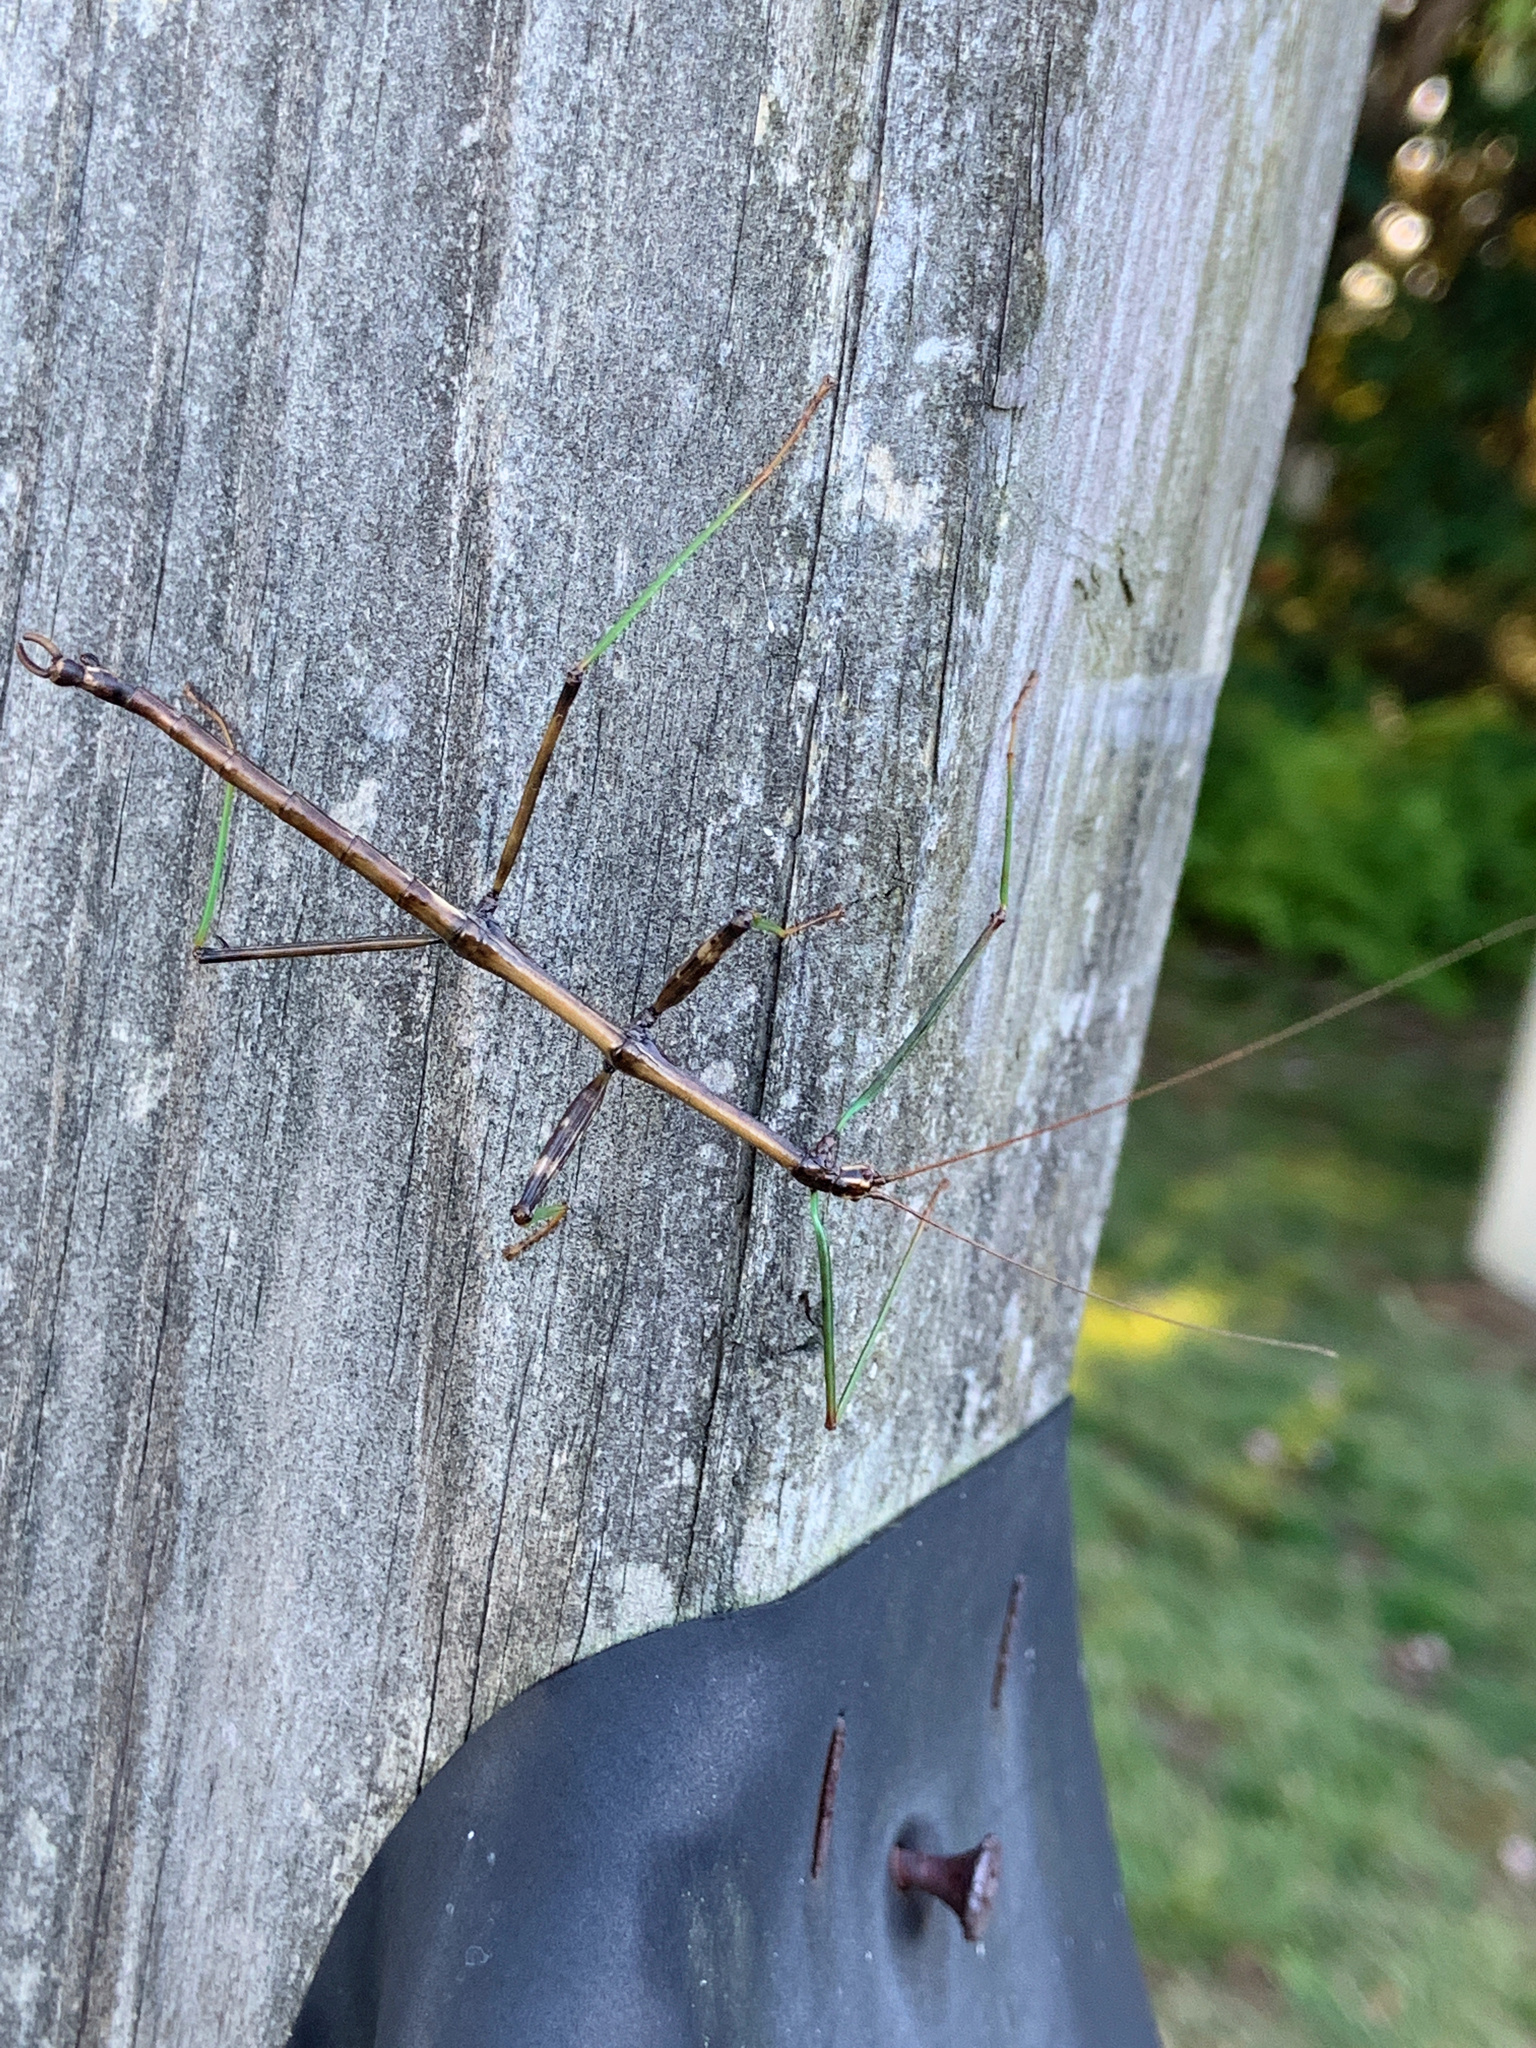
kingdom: Animalia
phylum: Arthropoda
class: Insecta
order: Phasmida
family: Diapheromeridae
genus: Diapheromera
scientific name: Diapheromera femorata
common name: Common american walkingstick
